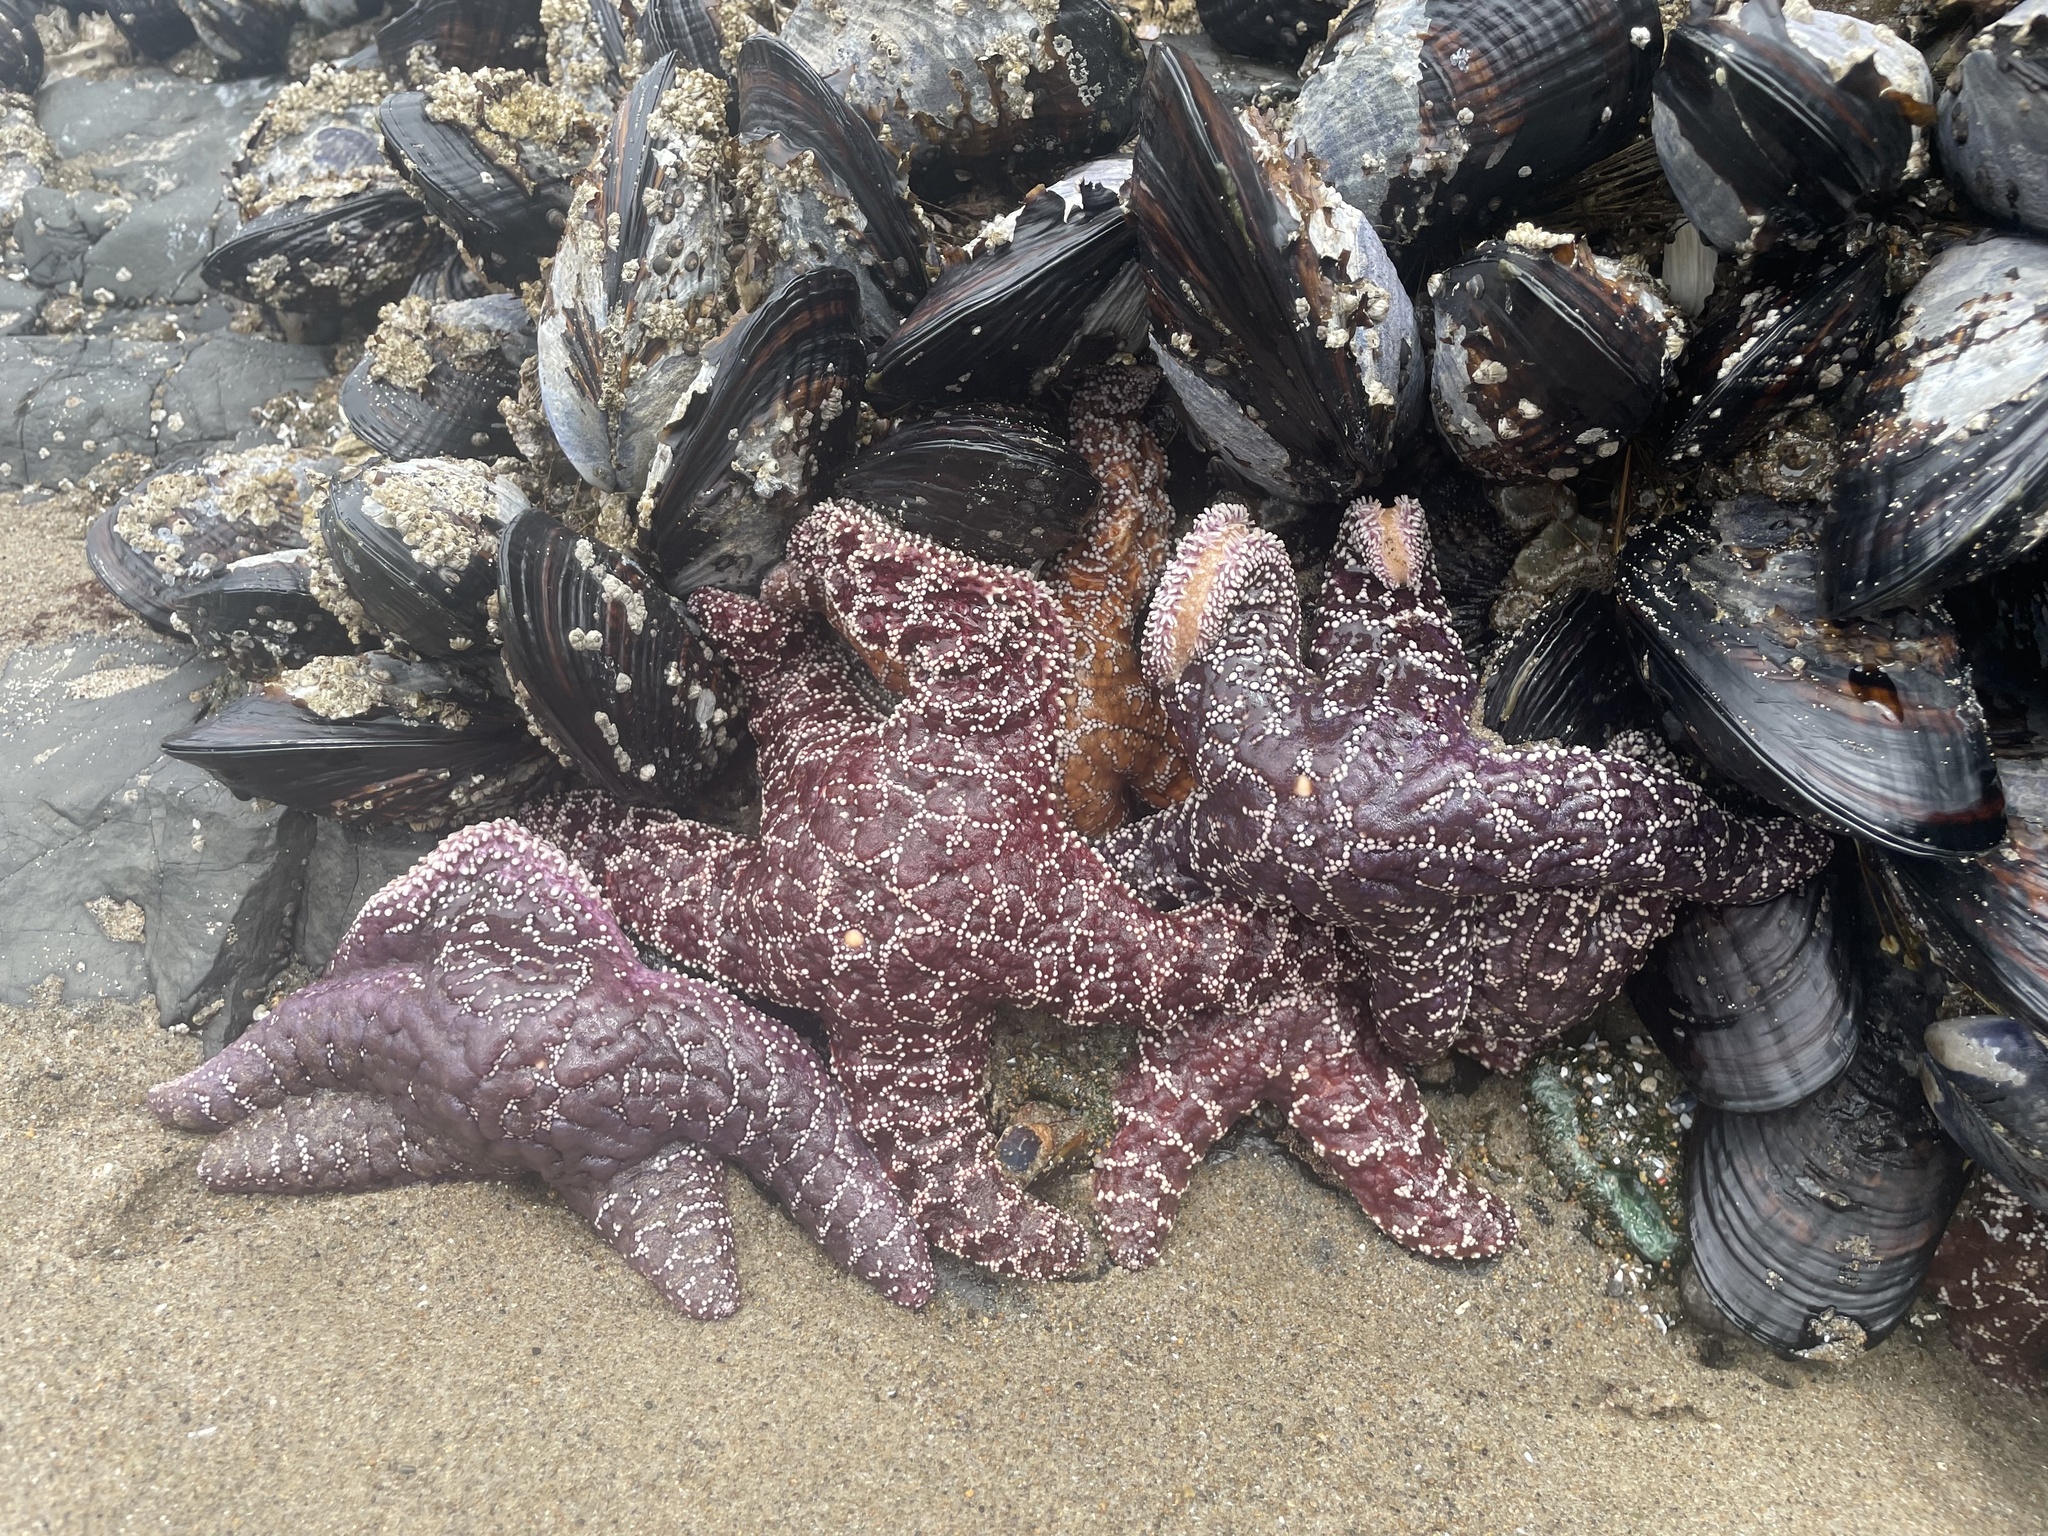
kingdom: Animalia
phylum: Echinodermata
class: Asteroidea
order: Forcipulatida
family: Asteriidae
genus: Pisaster
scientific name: Pisaster ochraceus
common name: Ochre stars
